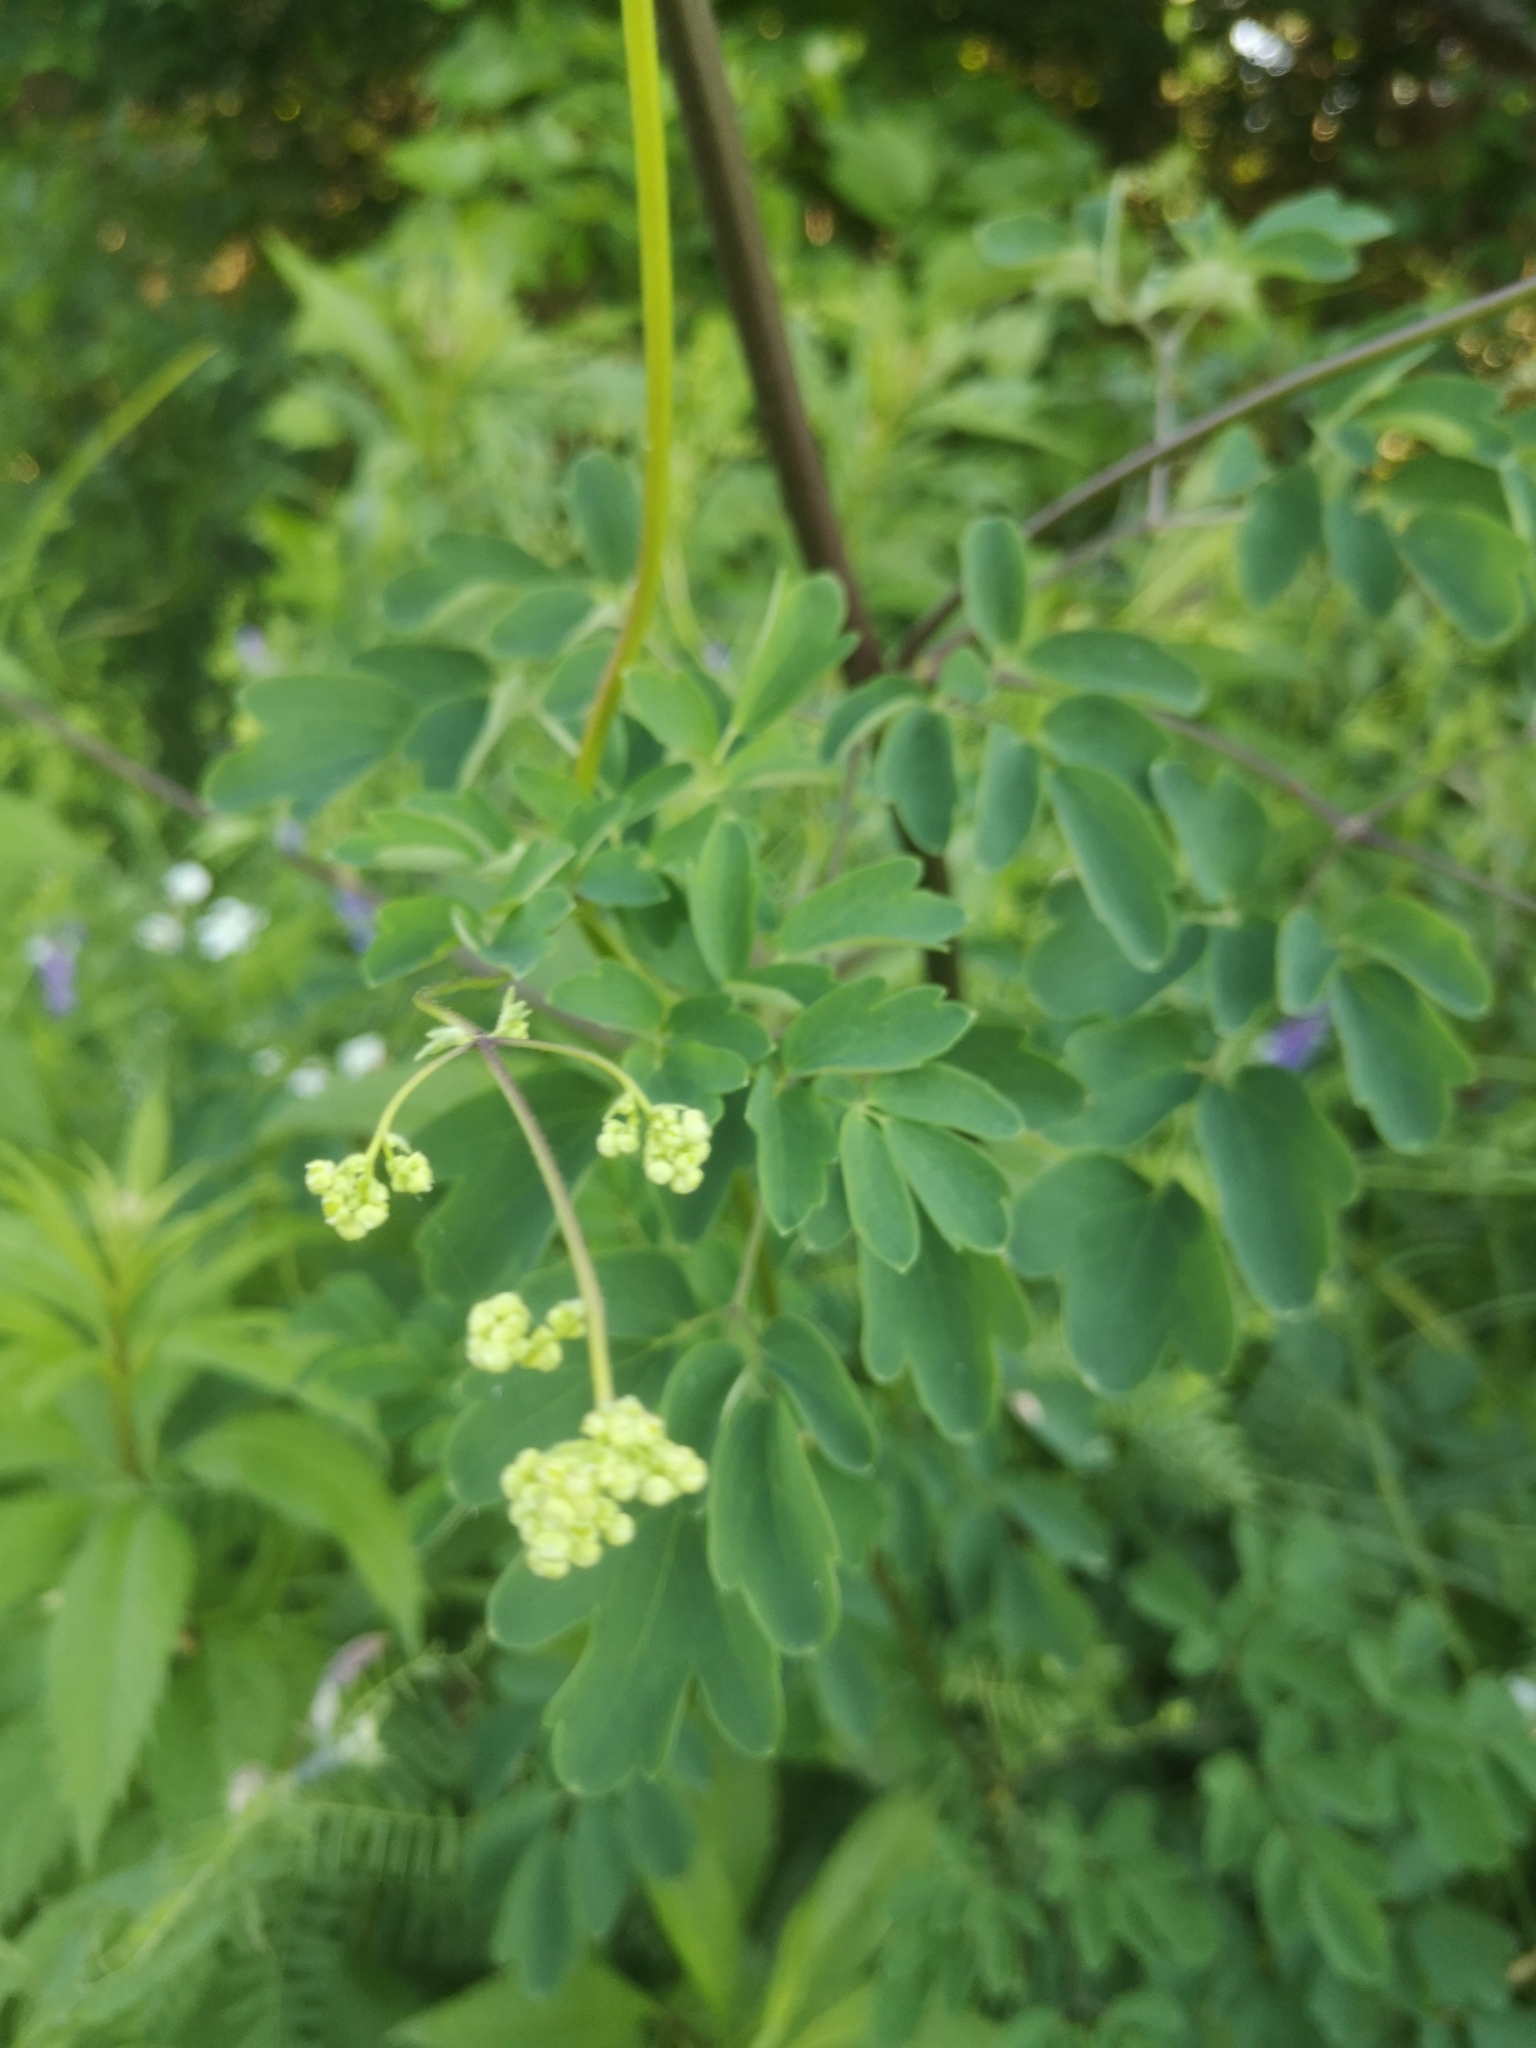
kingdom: Plantae
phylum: Tracheophyta
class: Magnoliopsida
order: Ranunculales
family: Ranunculaceae
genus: Thalictrum
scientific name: Thalictrum pubescens
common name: King-of-the-meadow
